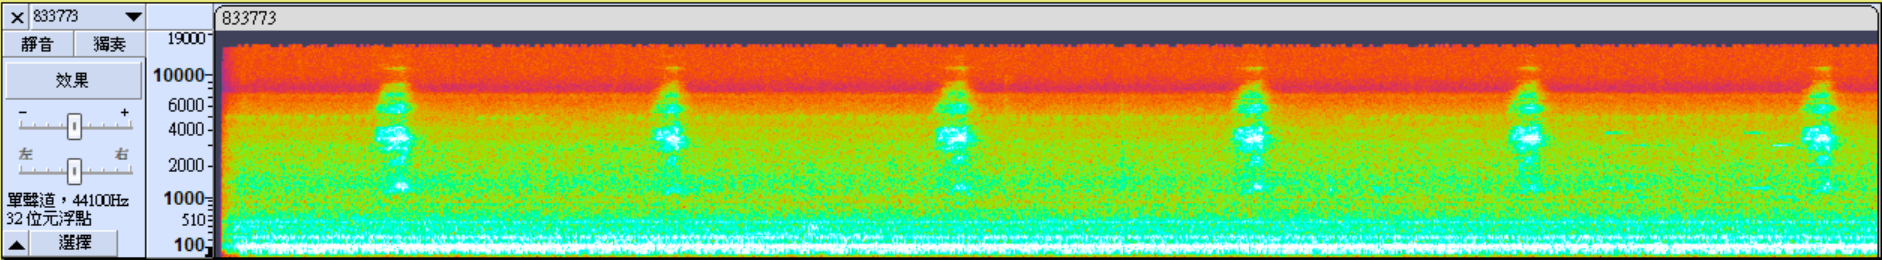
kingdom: Animalia
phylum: Chordata
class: Mammalia
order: Rodentia
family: Sciuridae
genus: Petaurista
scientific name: Petaurista
